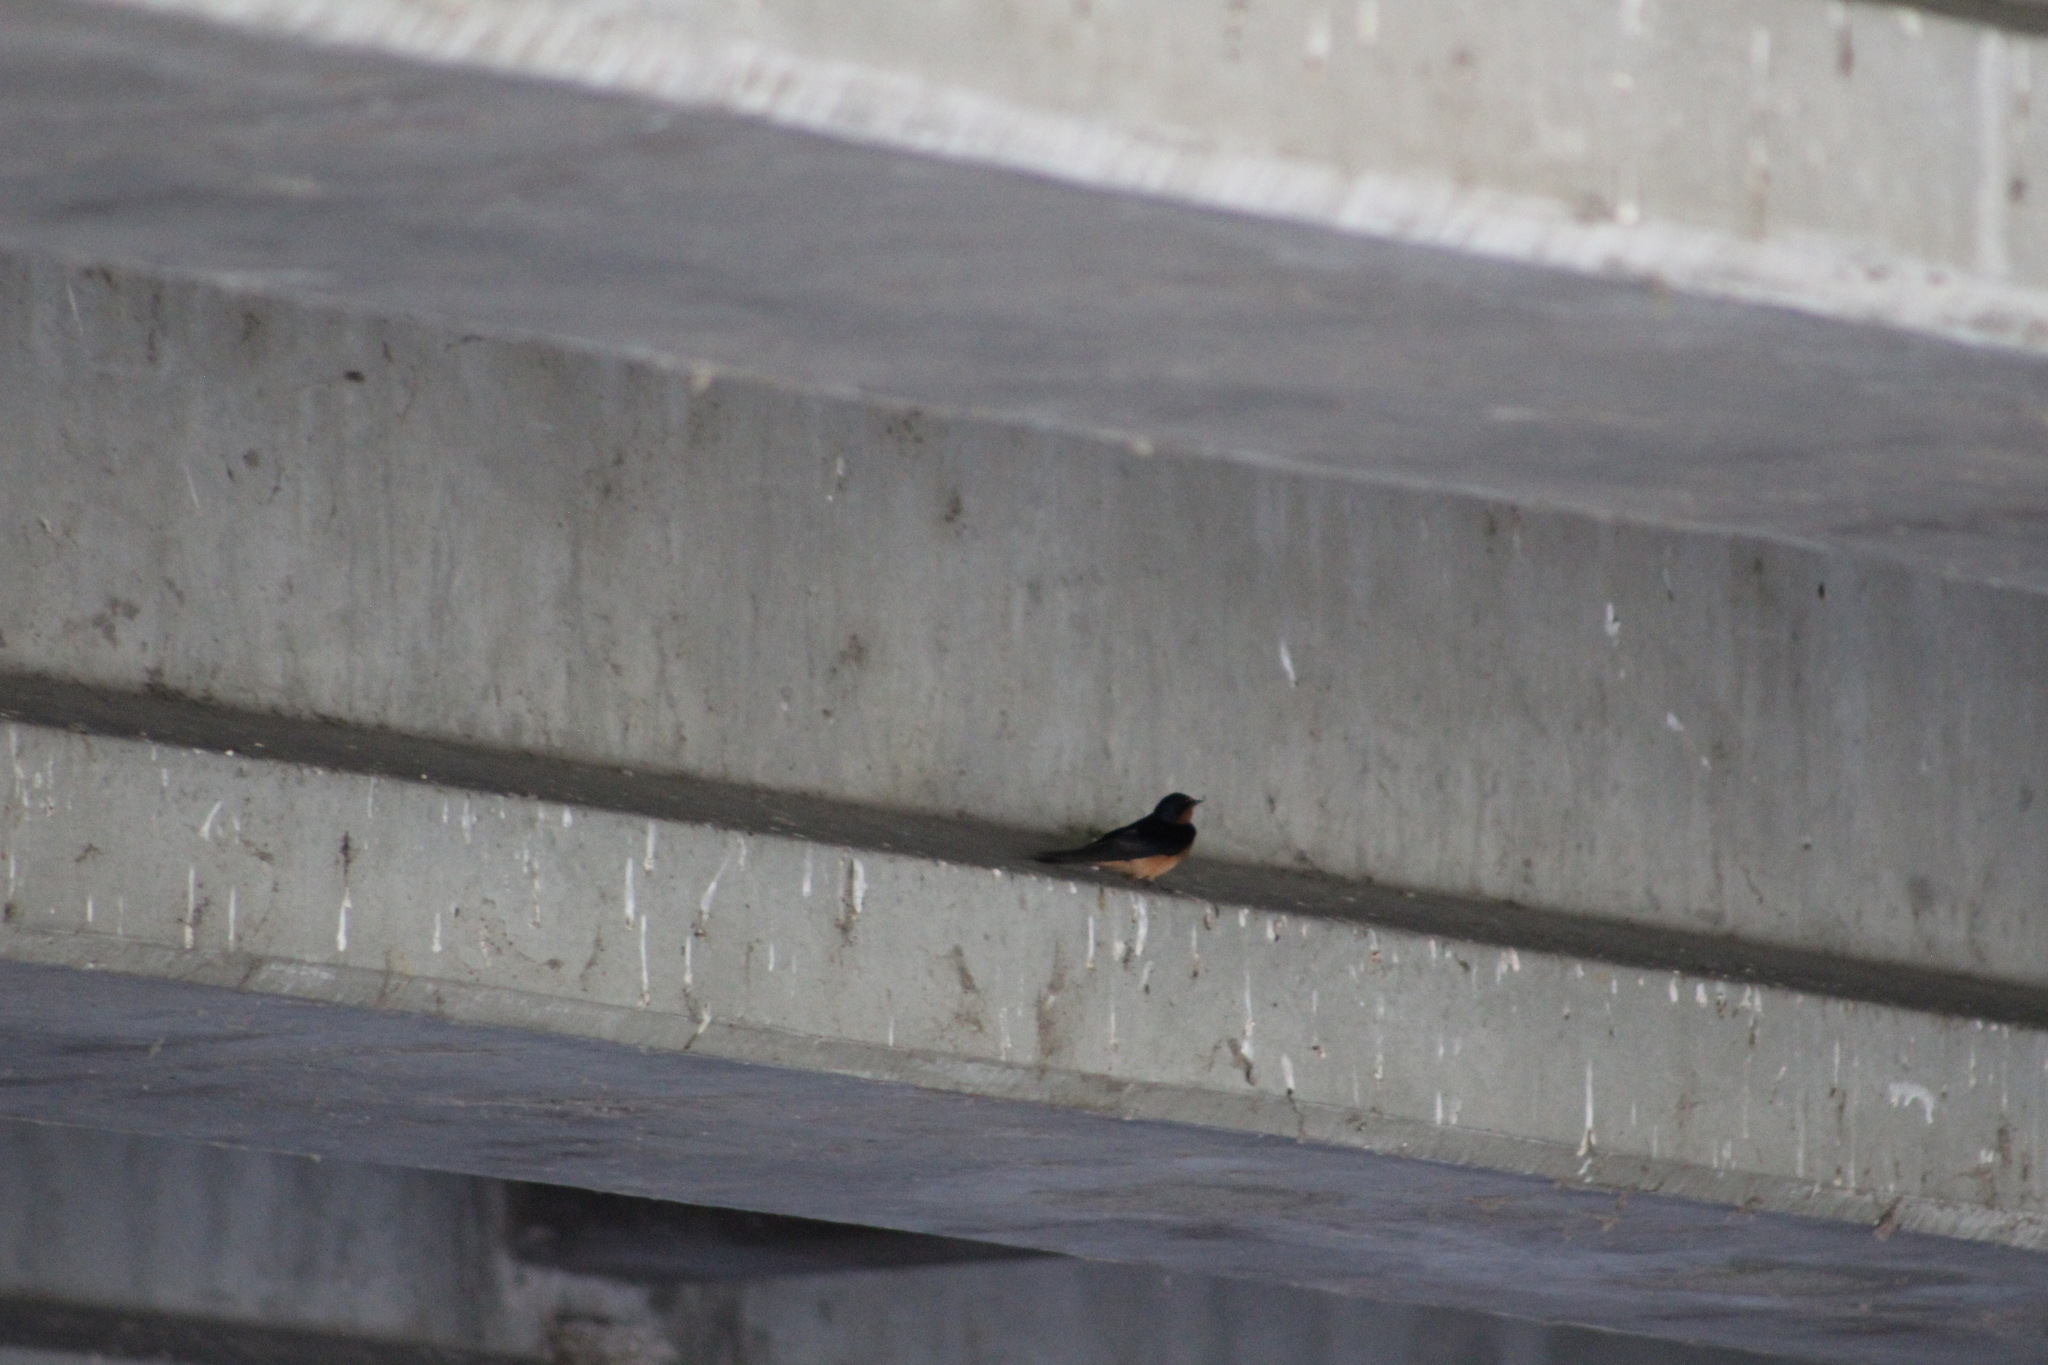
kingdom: Animalia
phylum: Chordata
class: Aves
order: Passeriformes
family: Hirundinidae
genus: Hirundo
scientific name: Hirundo rustica
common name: Barn swallow
